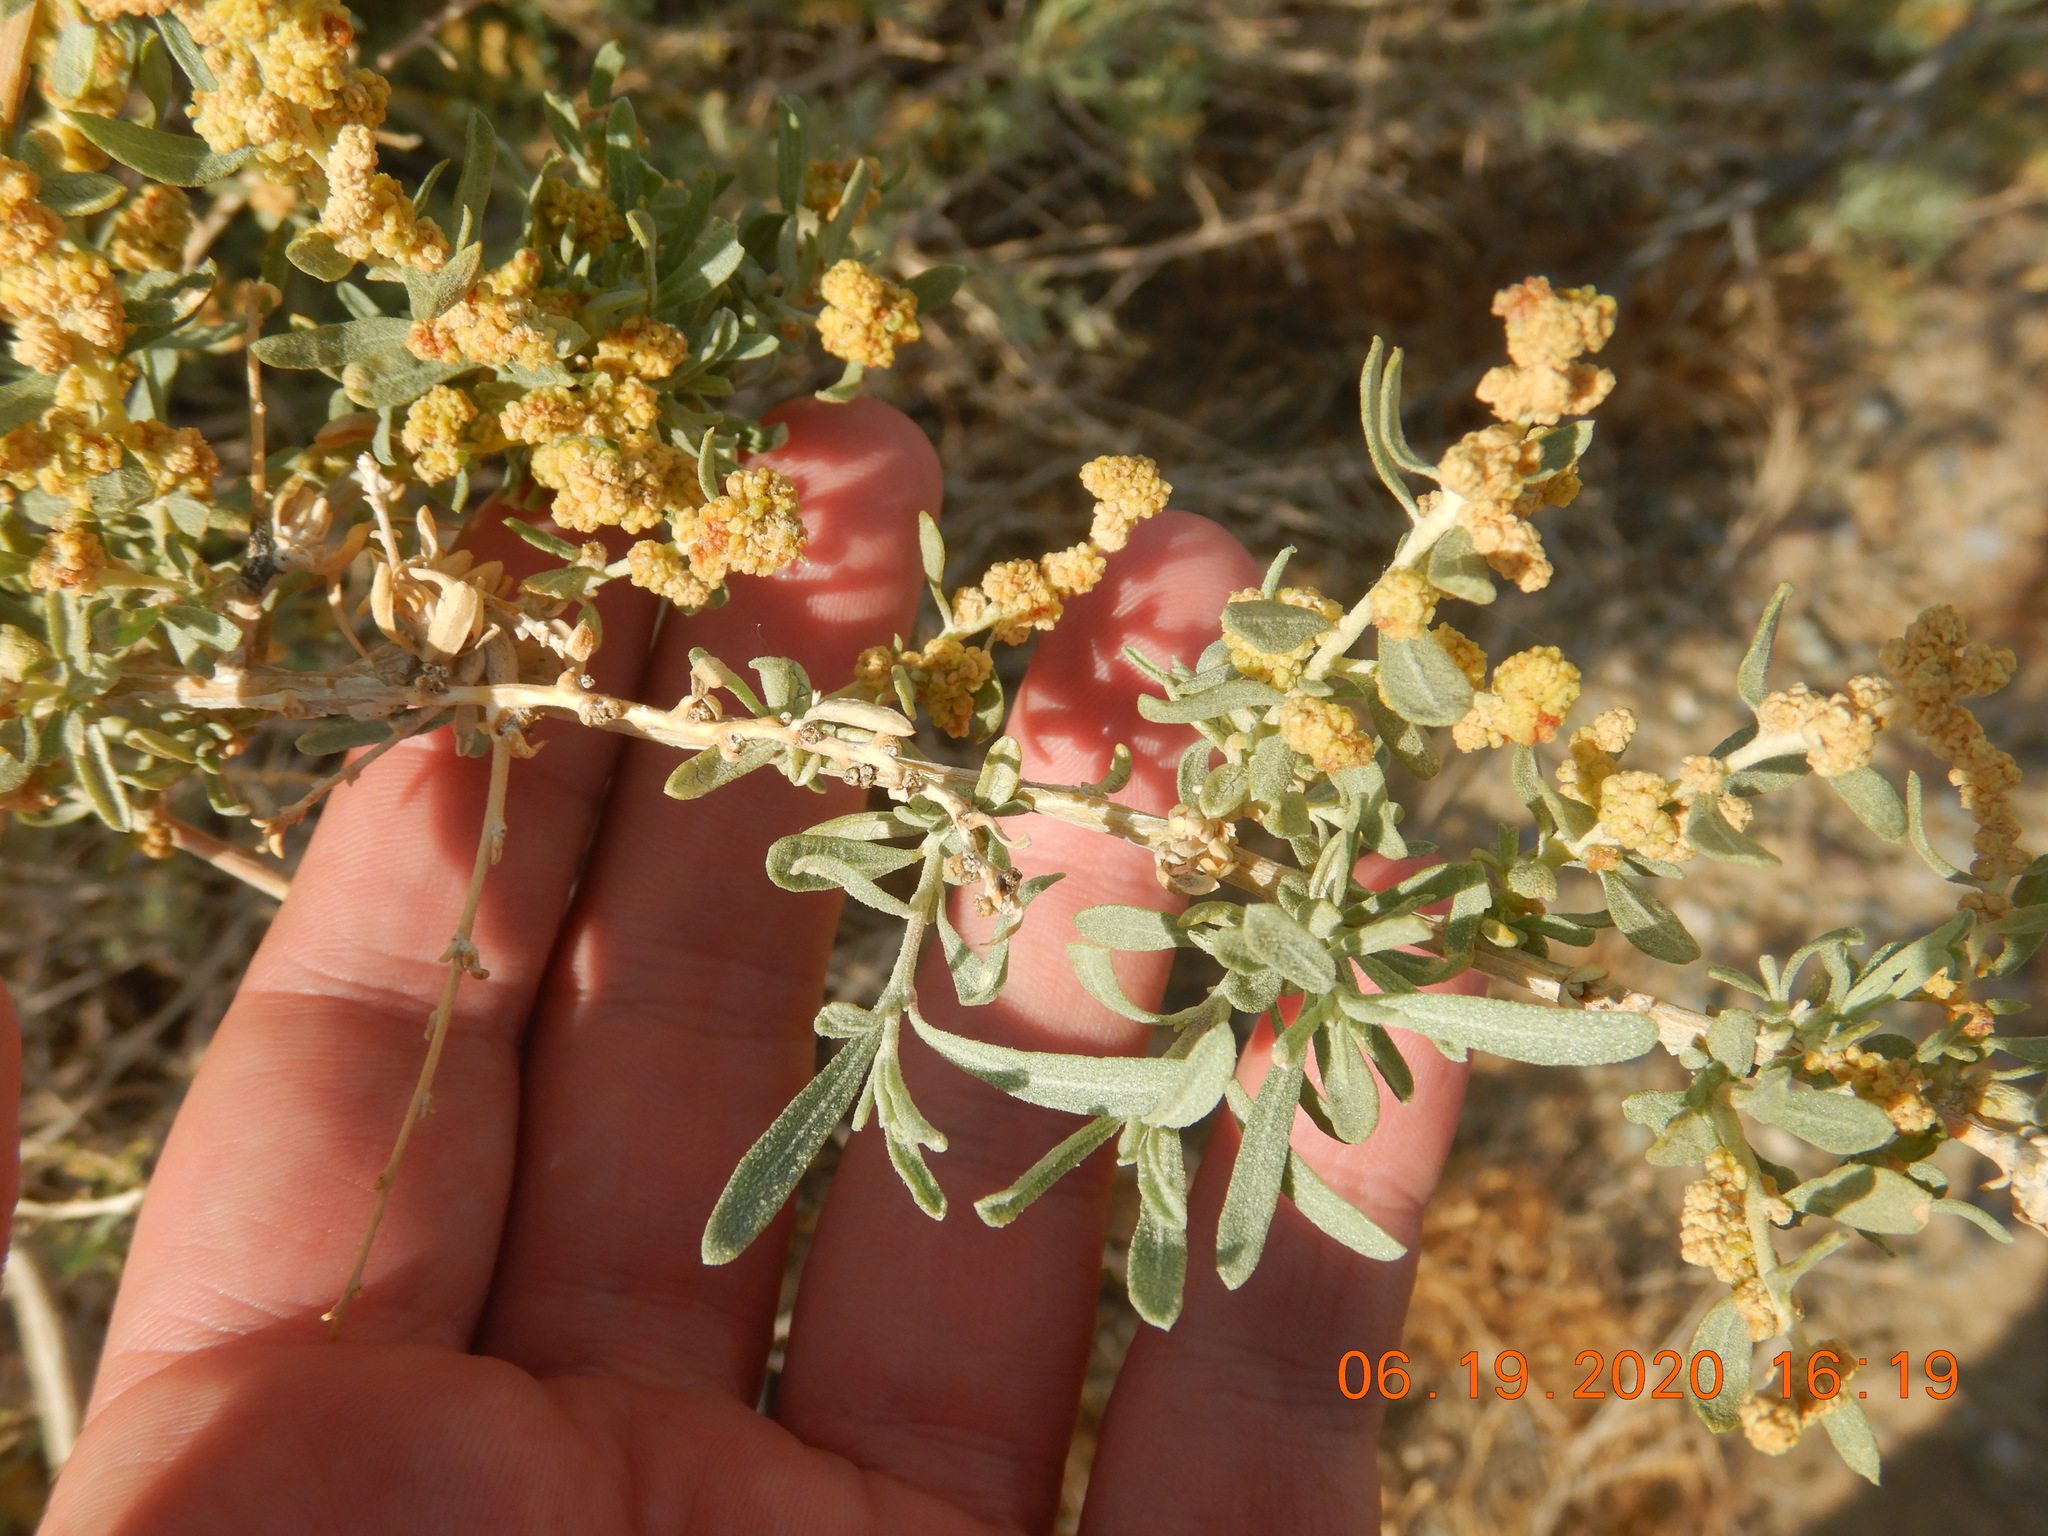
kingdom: Plantae
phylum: Tracheophyta
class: Magnoliopsida
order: Caryophyllales
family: Amaranthaceae
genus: Atriplex
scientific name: Atriplex canescens
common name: Four-wing saltbush
